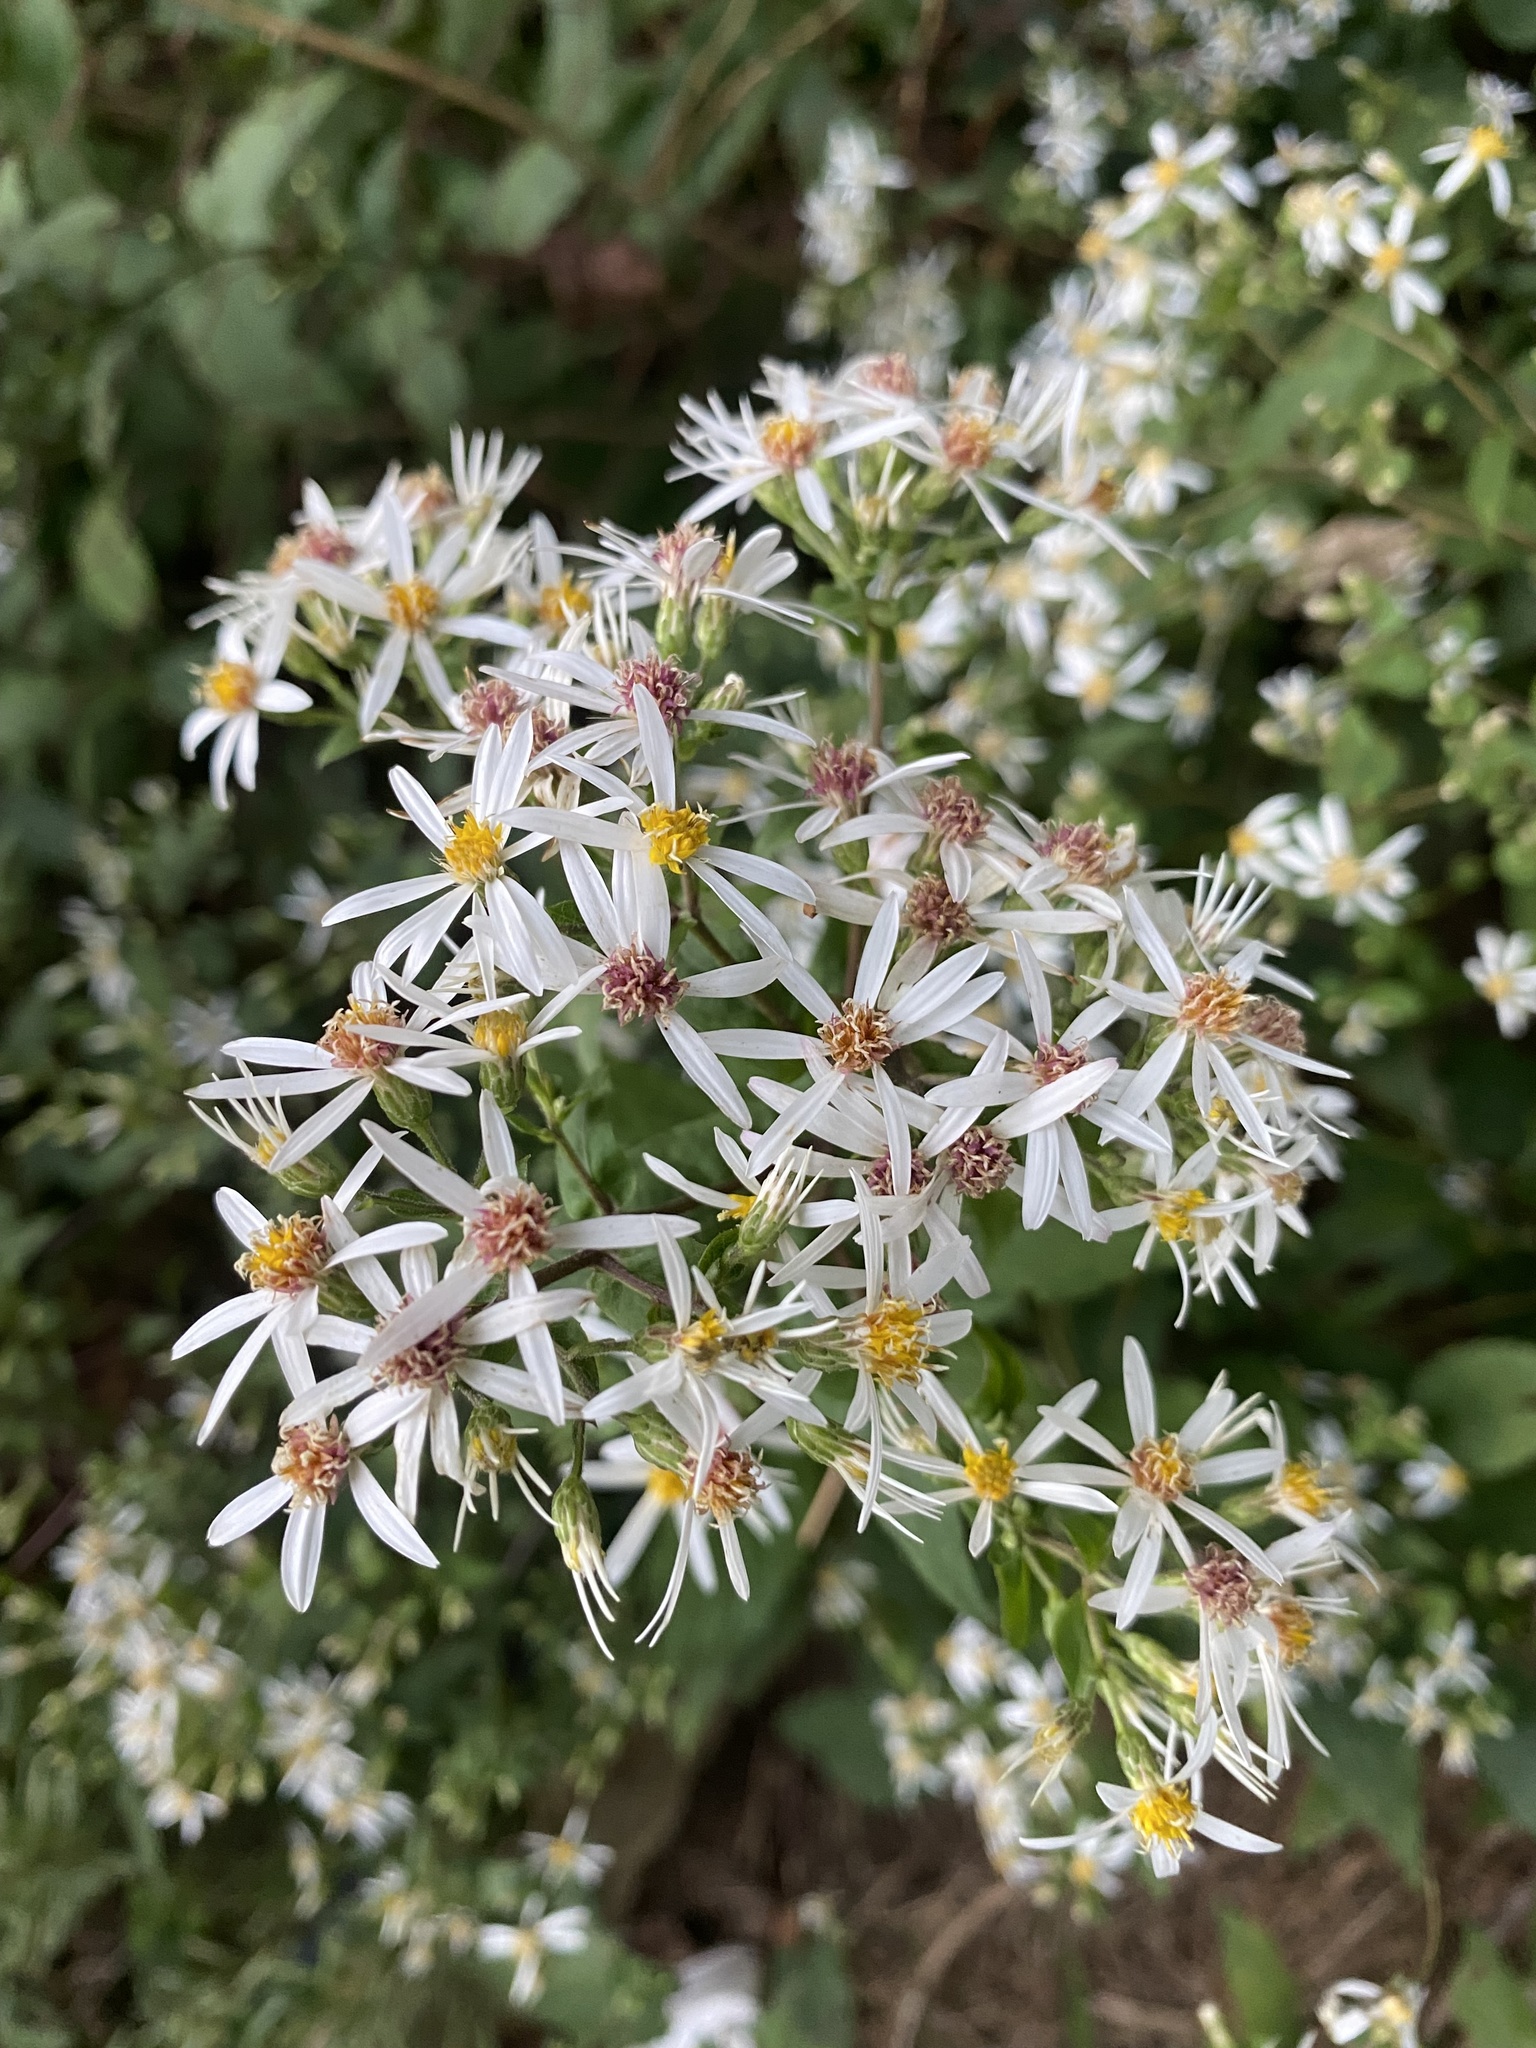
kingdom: Plantae
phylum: Tracheophyta
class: Magnoliopsida
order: Asterales
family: Asteraceae
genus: Eurybia
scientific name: Eurybia divaricata
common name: White wood aster
